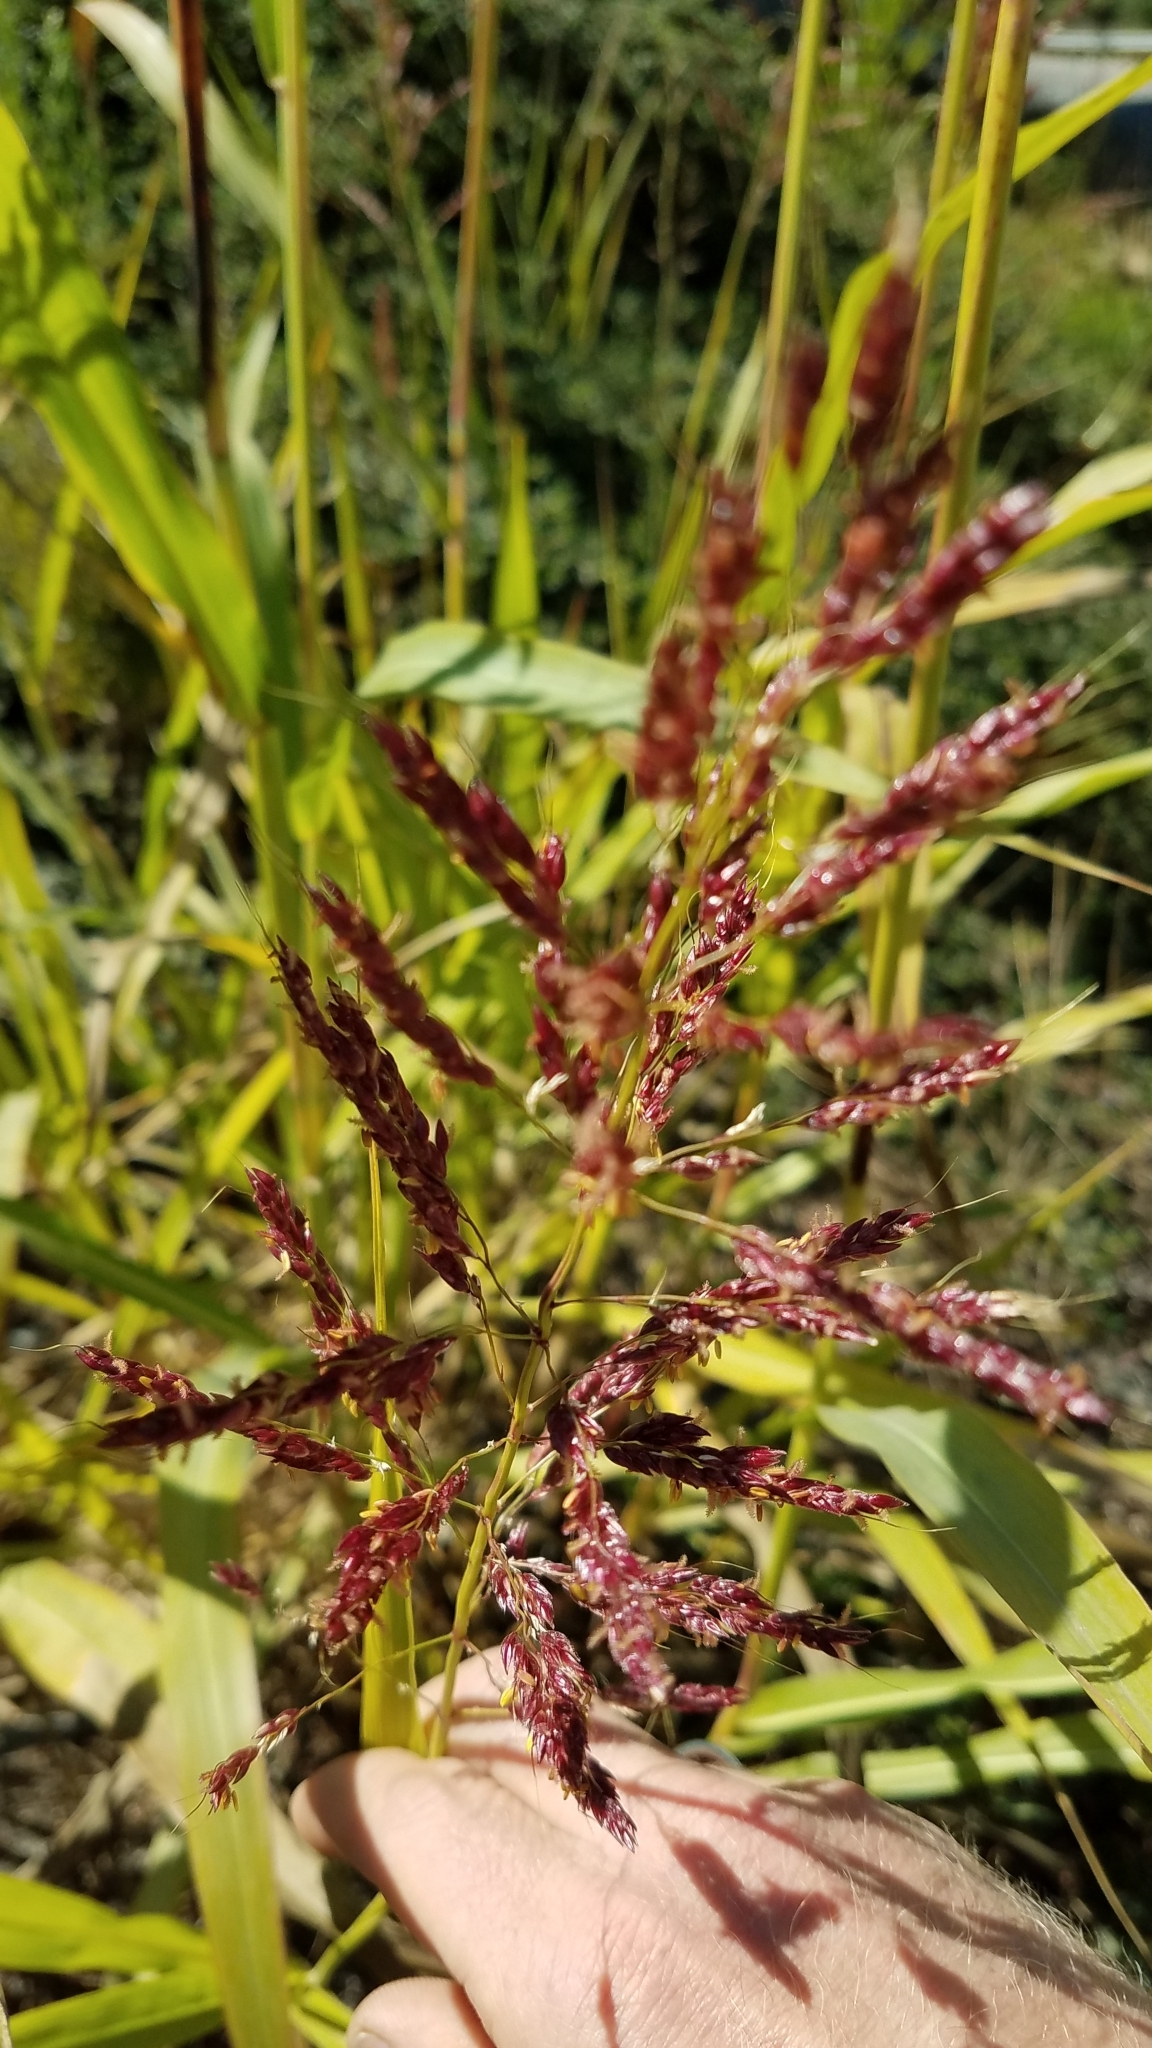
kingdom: Plantae
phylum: Tracheophyta
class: Liliopsida
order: Poales
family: Poaceae
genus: Sorghum
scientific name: Sorghum halepense
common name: Johnson-grass
